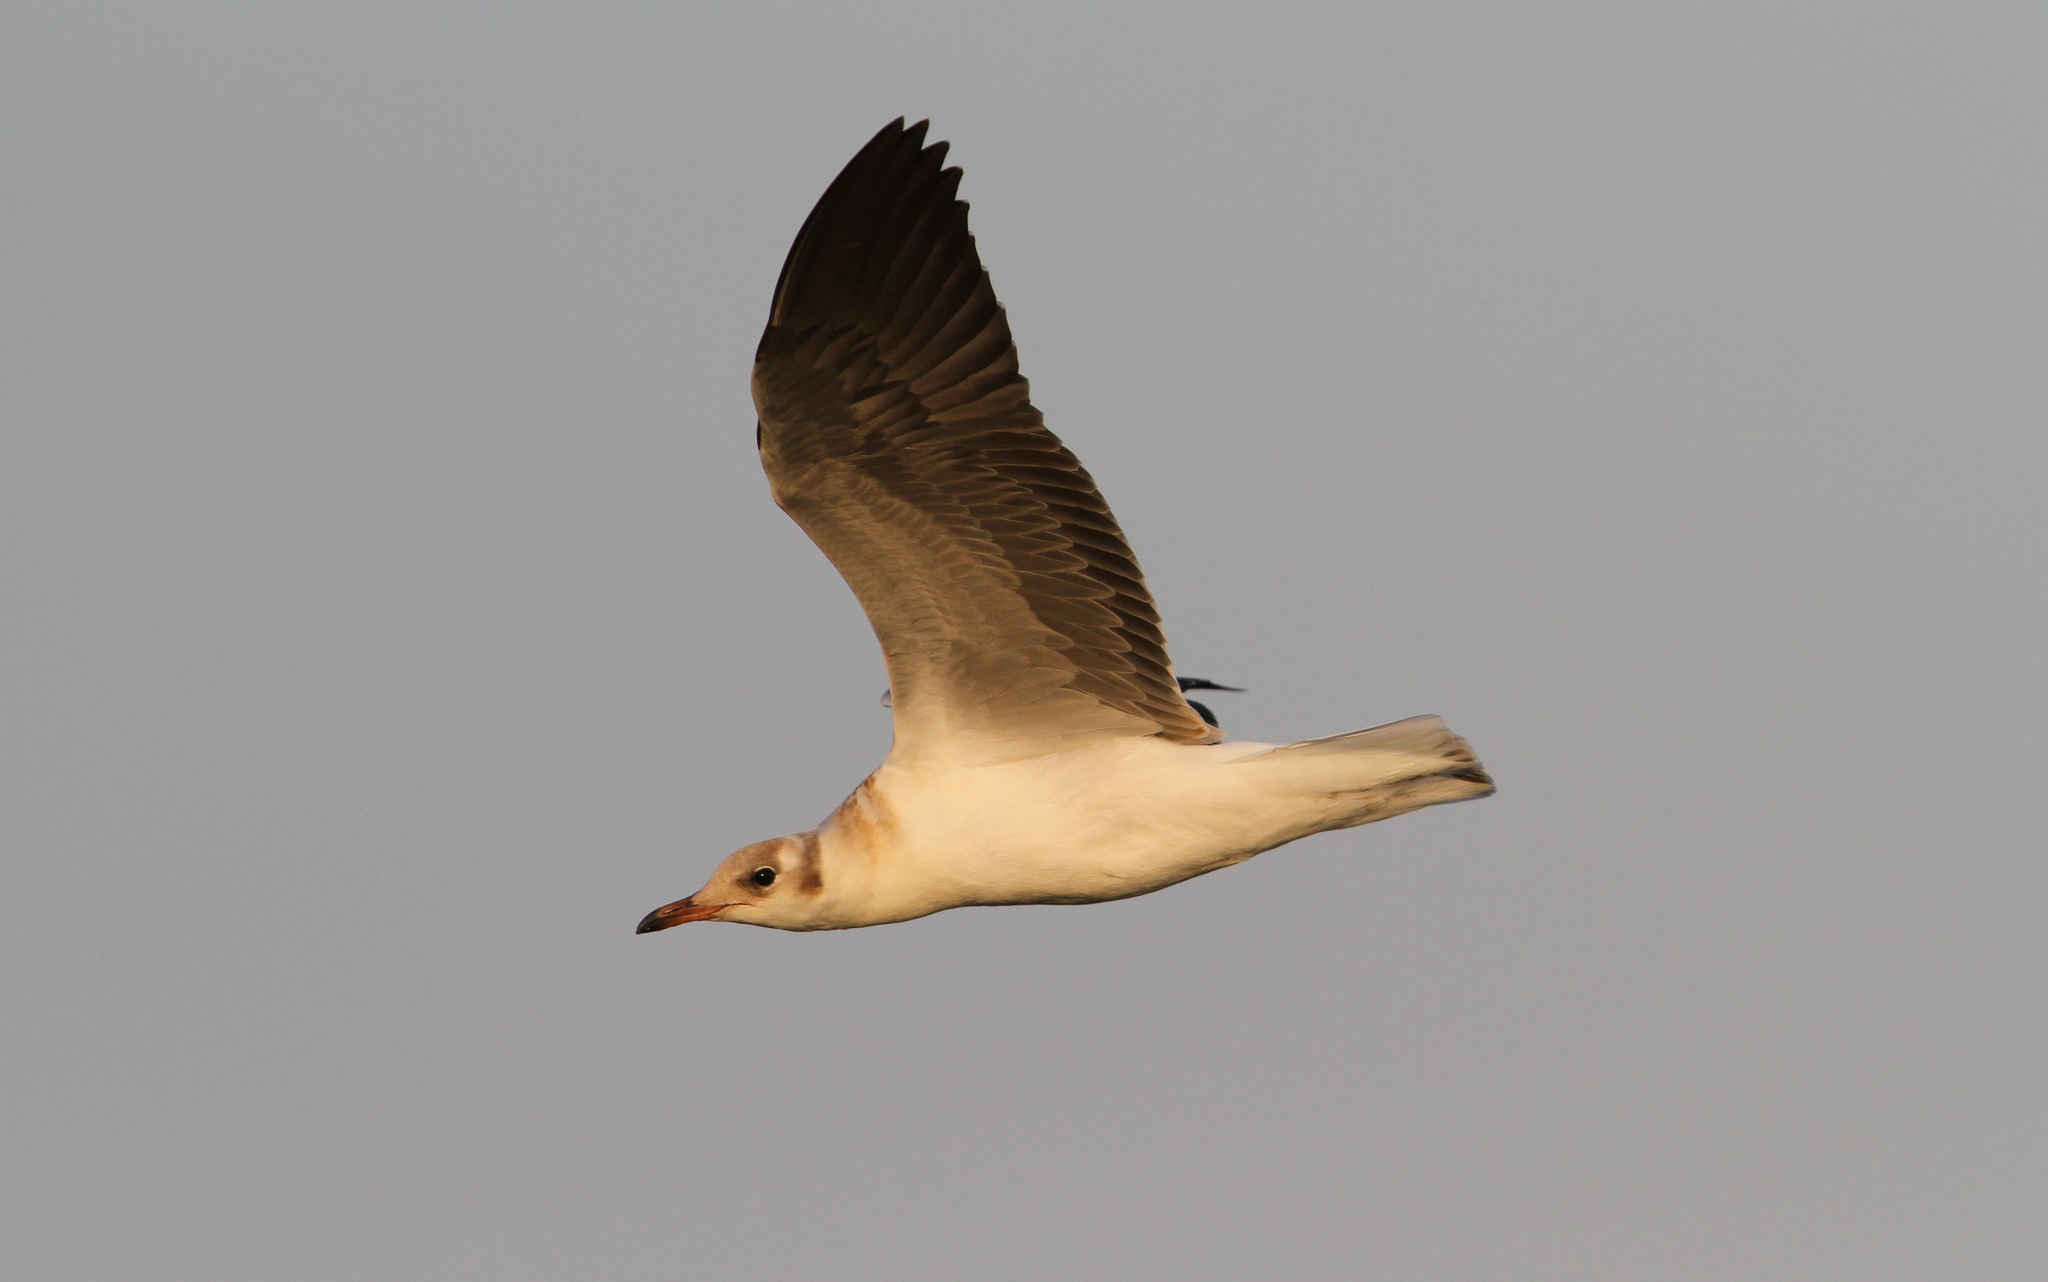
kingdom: Animalia
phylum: Chordata
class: Aves
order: Charadriiformes
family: Laridae
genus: Chroicocephalus
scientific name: Chroicocephalus cirrocephalus
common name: Grey-headed gull
